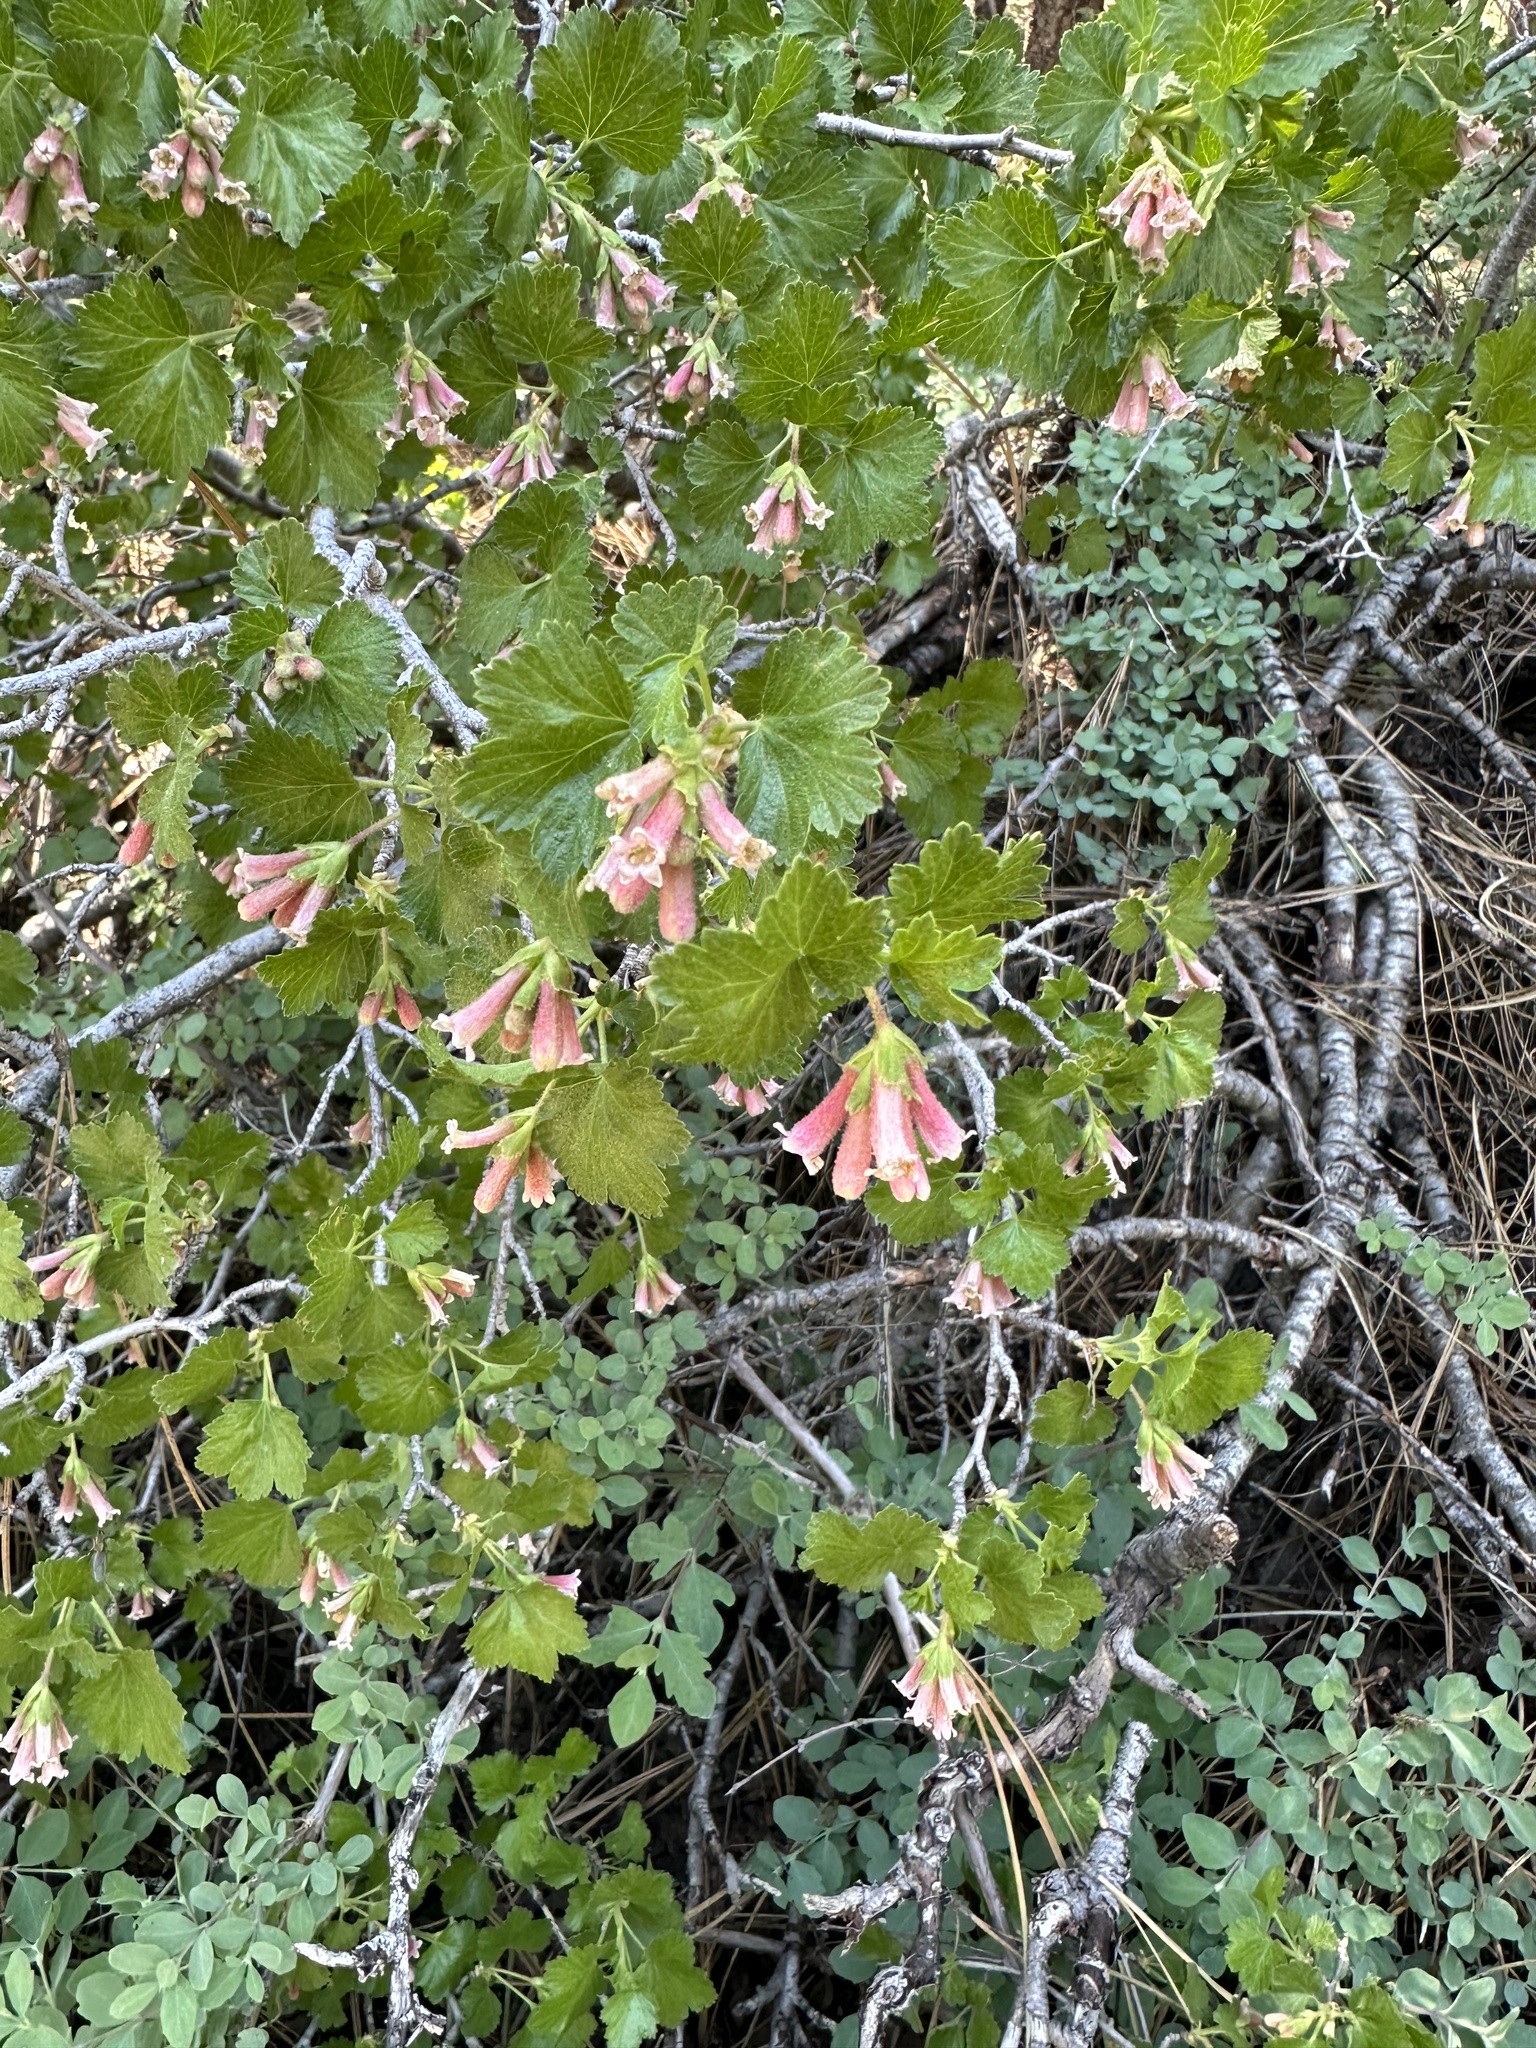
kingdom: Plantae
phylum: Tracheophyta
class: Magnoliopsida
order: Saxifragales
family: Grossulariaceae
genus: Ribes
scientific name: Ribes cereum
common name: Wax currant
